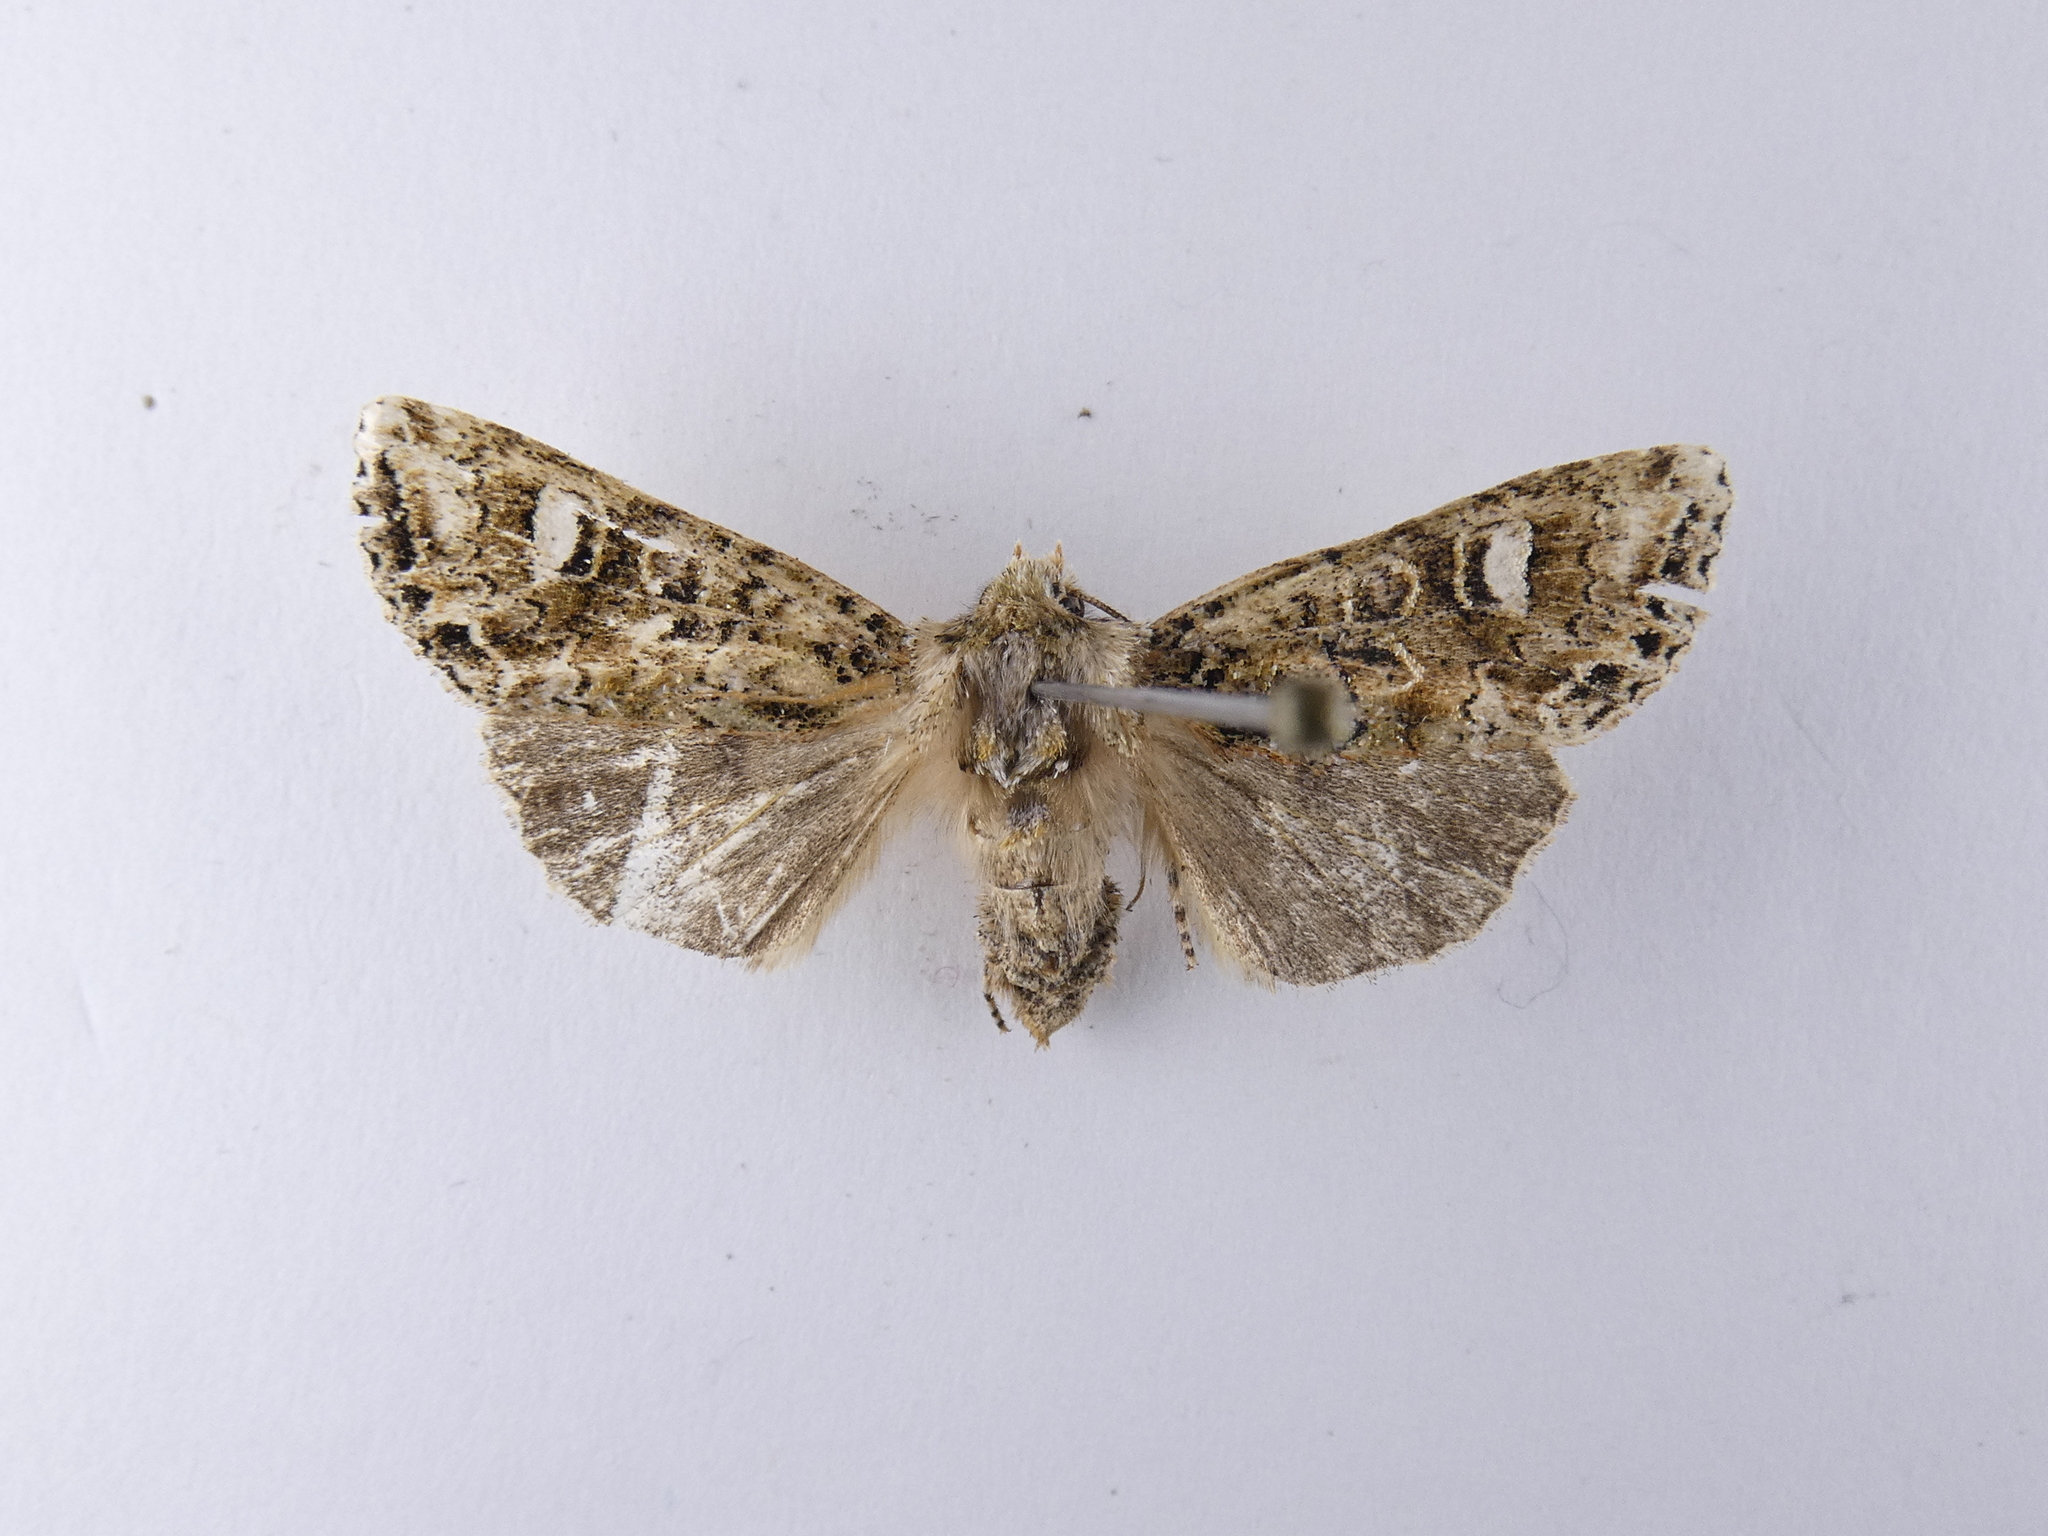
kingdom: Animalia
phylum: Arthropoda
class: Insecta
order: Lepidoptera
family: Noctuidae
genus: Ichneutica
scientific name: Ichneutica
